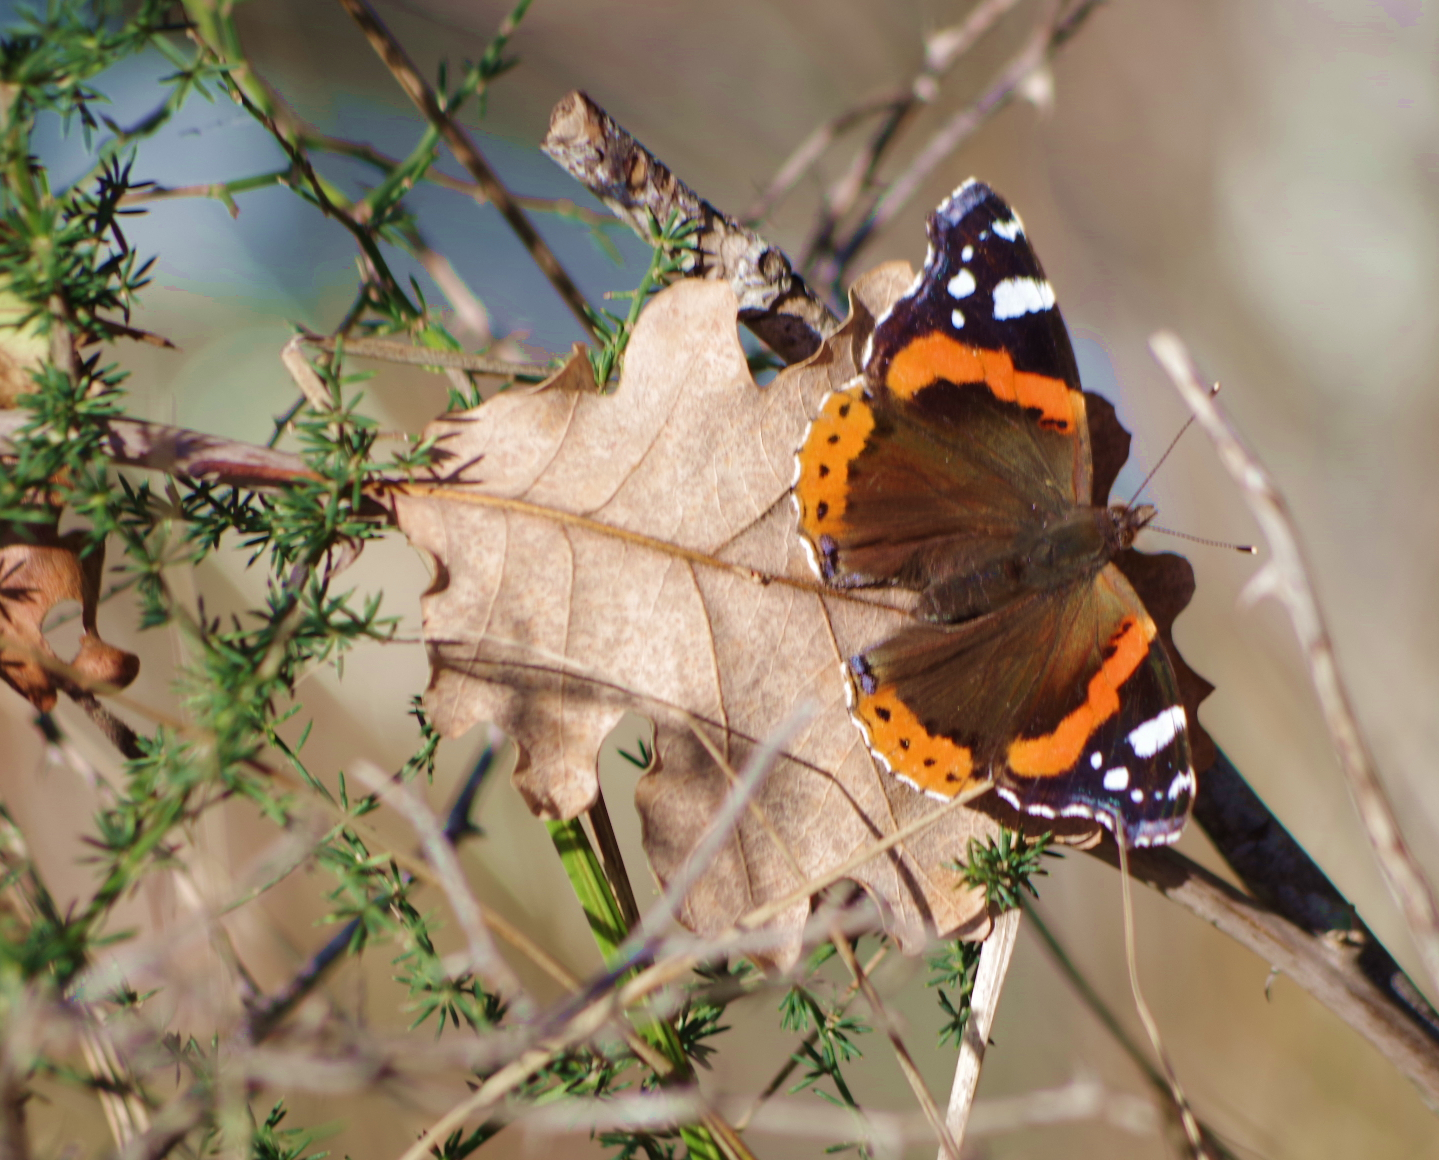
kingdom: Animalia
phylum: Arthropoda
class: Insecta
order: Lepidoptera
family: Nymphalidae
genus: Vanessa
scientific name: Vanessa atalanta
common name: Red admiral
